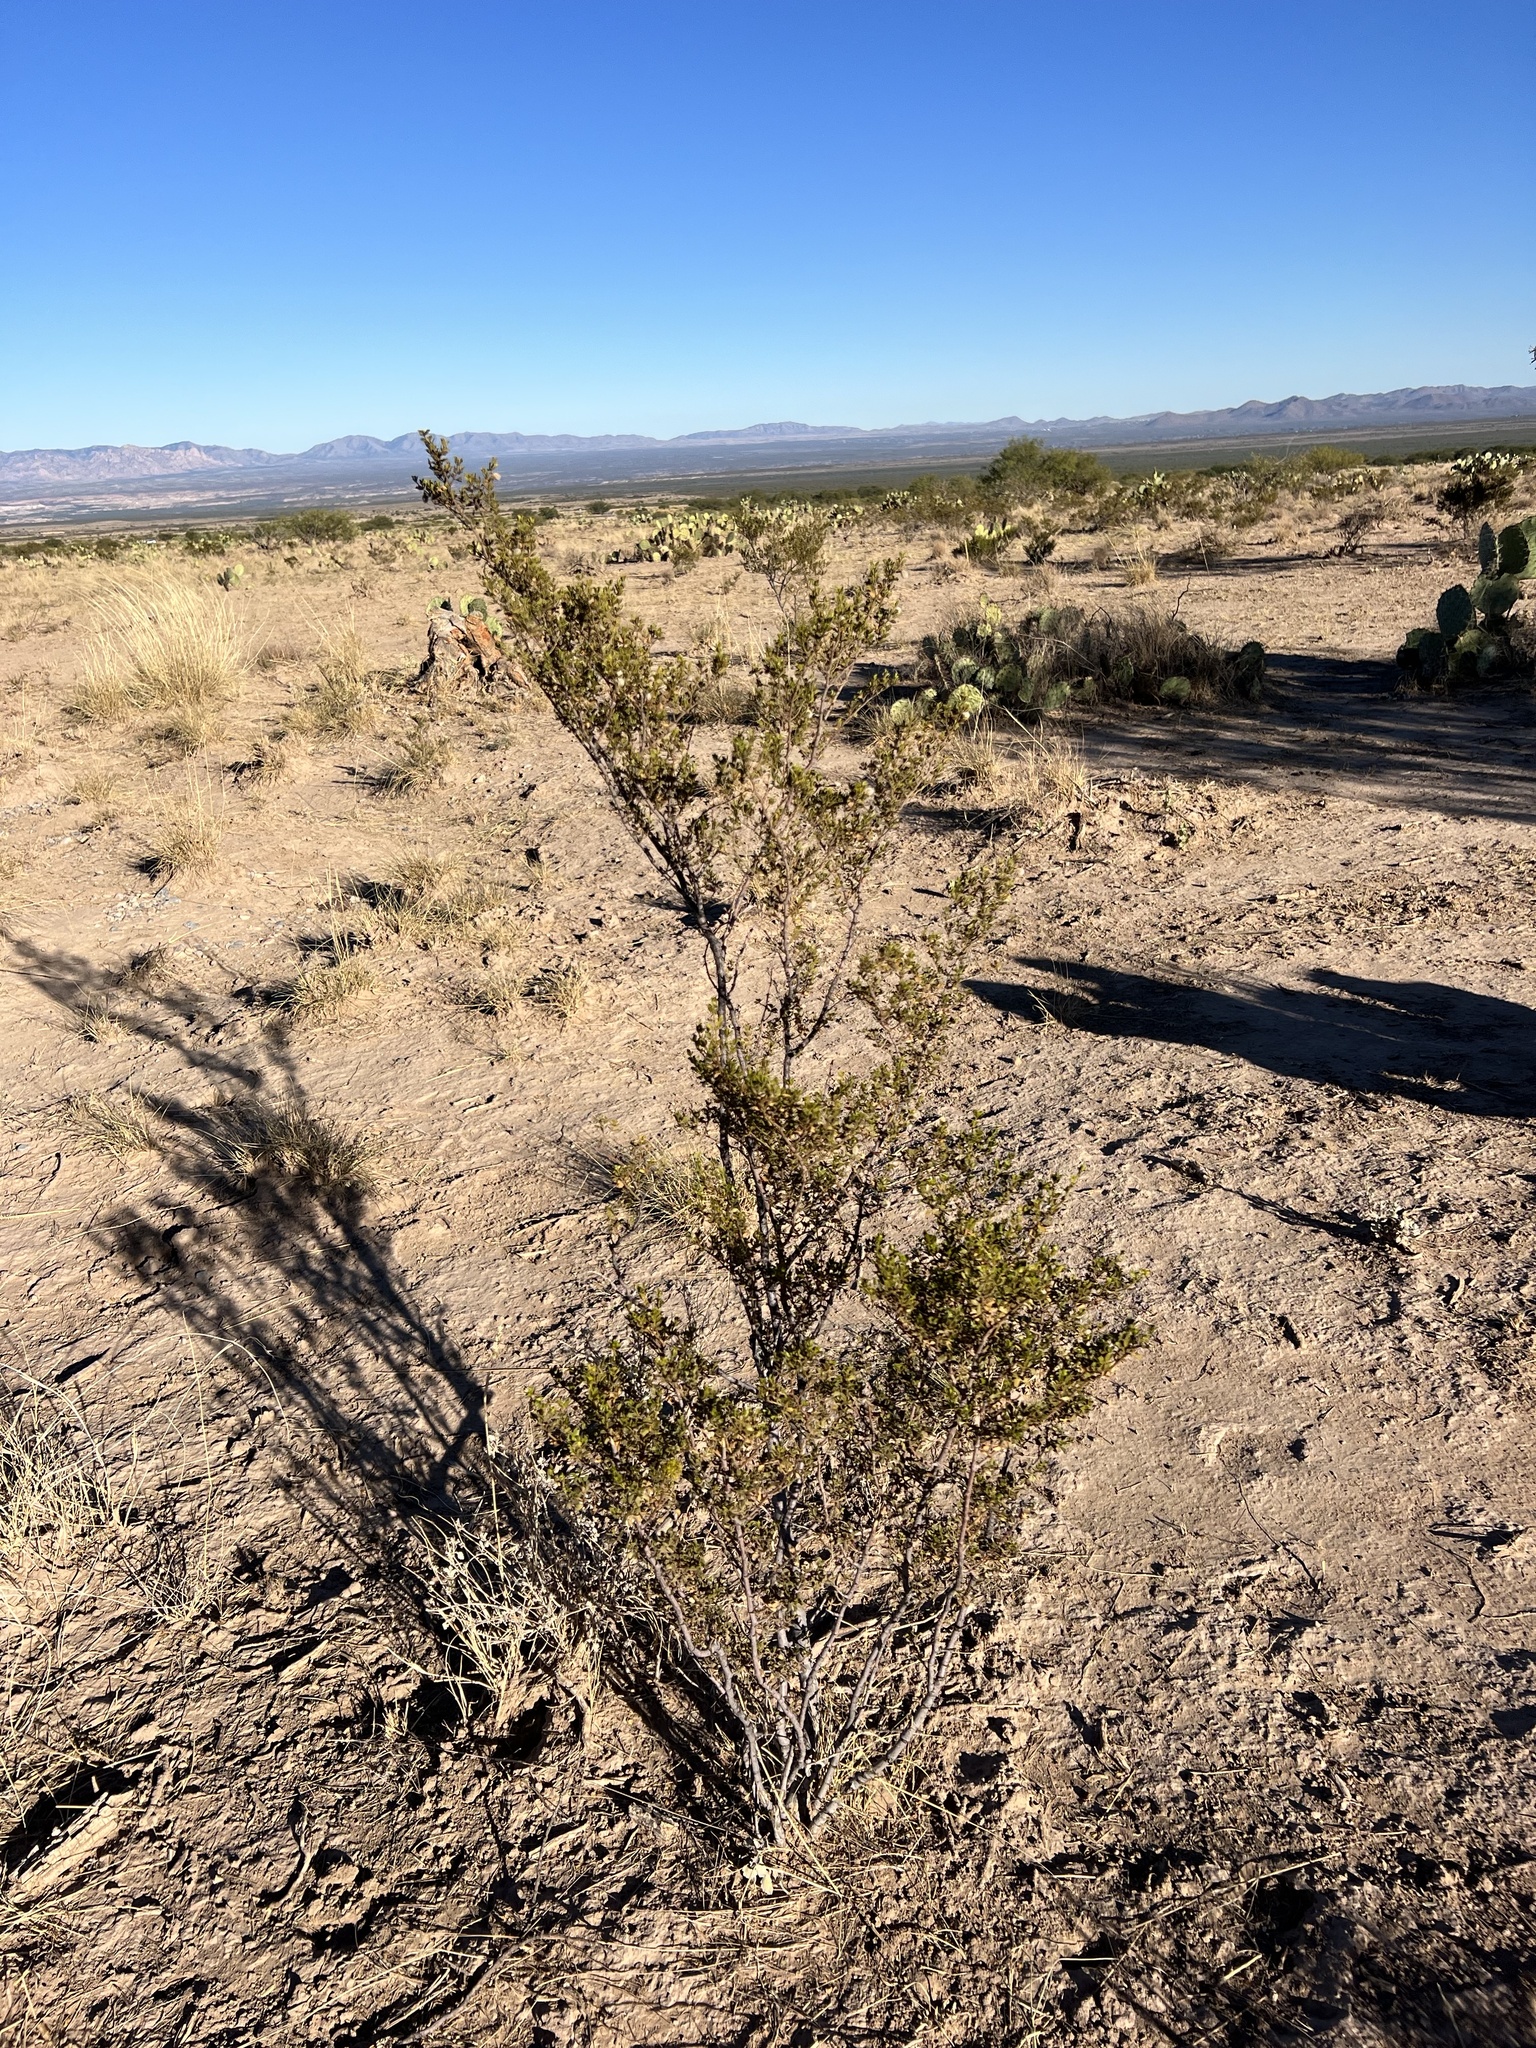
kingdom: Plantae
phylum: Tracheophyta
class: Magnoliopsida
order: Zygophyllales
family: Zygophyllaceae
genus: Larrea
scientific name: Larrea tridentata
